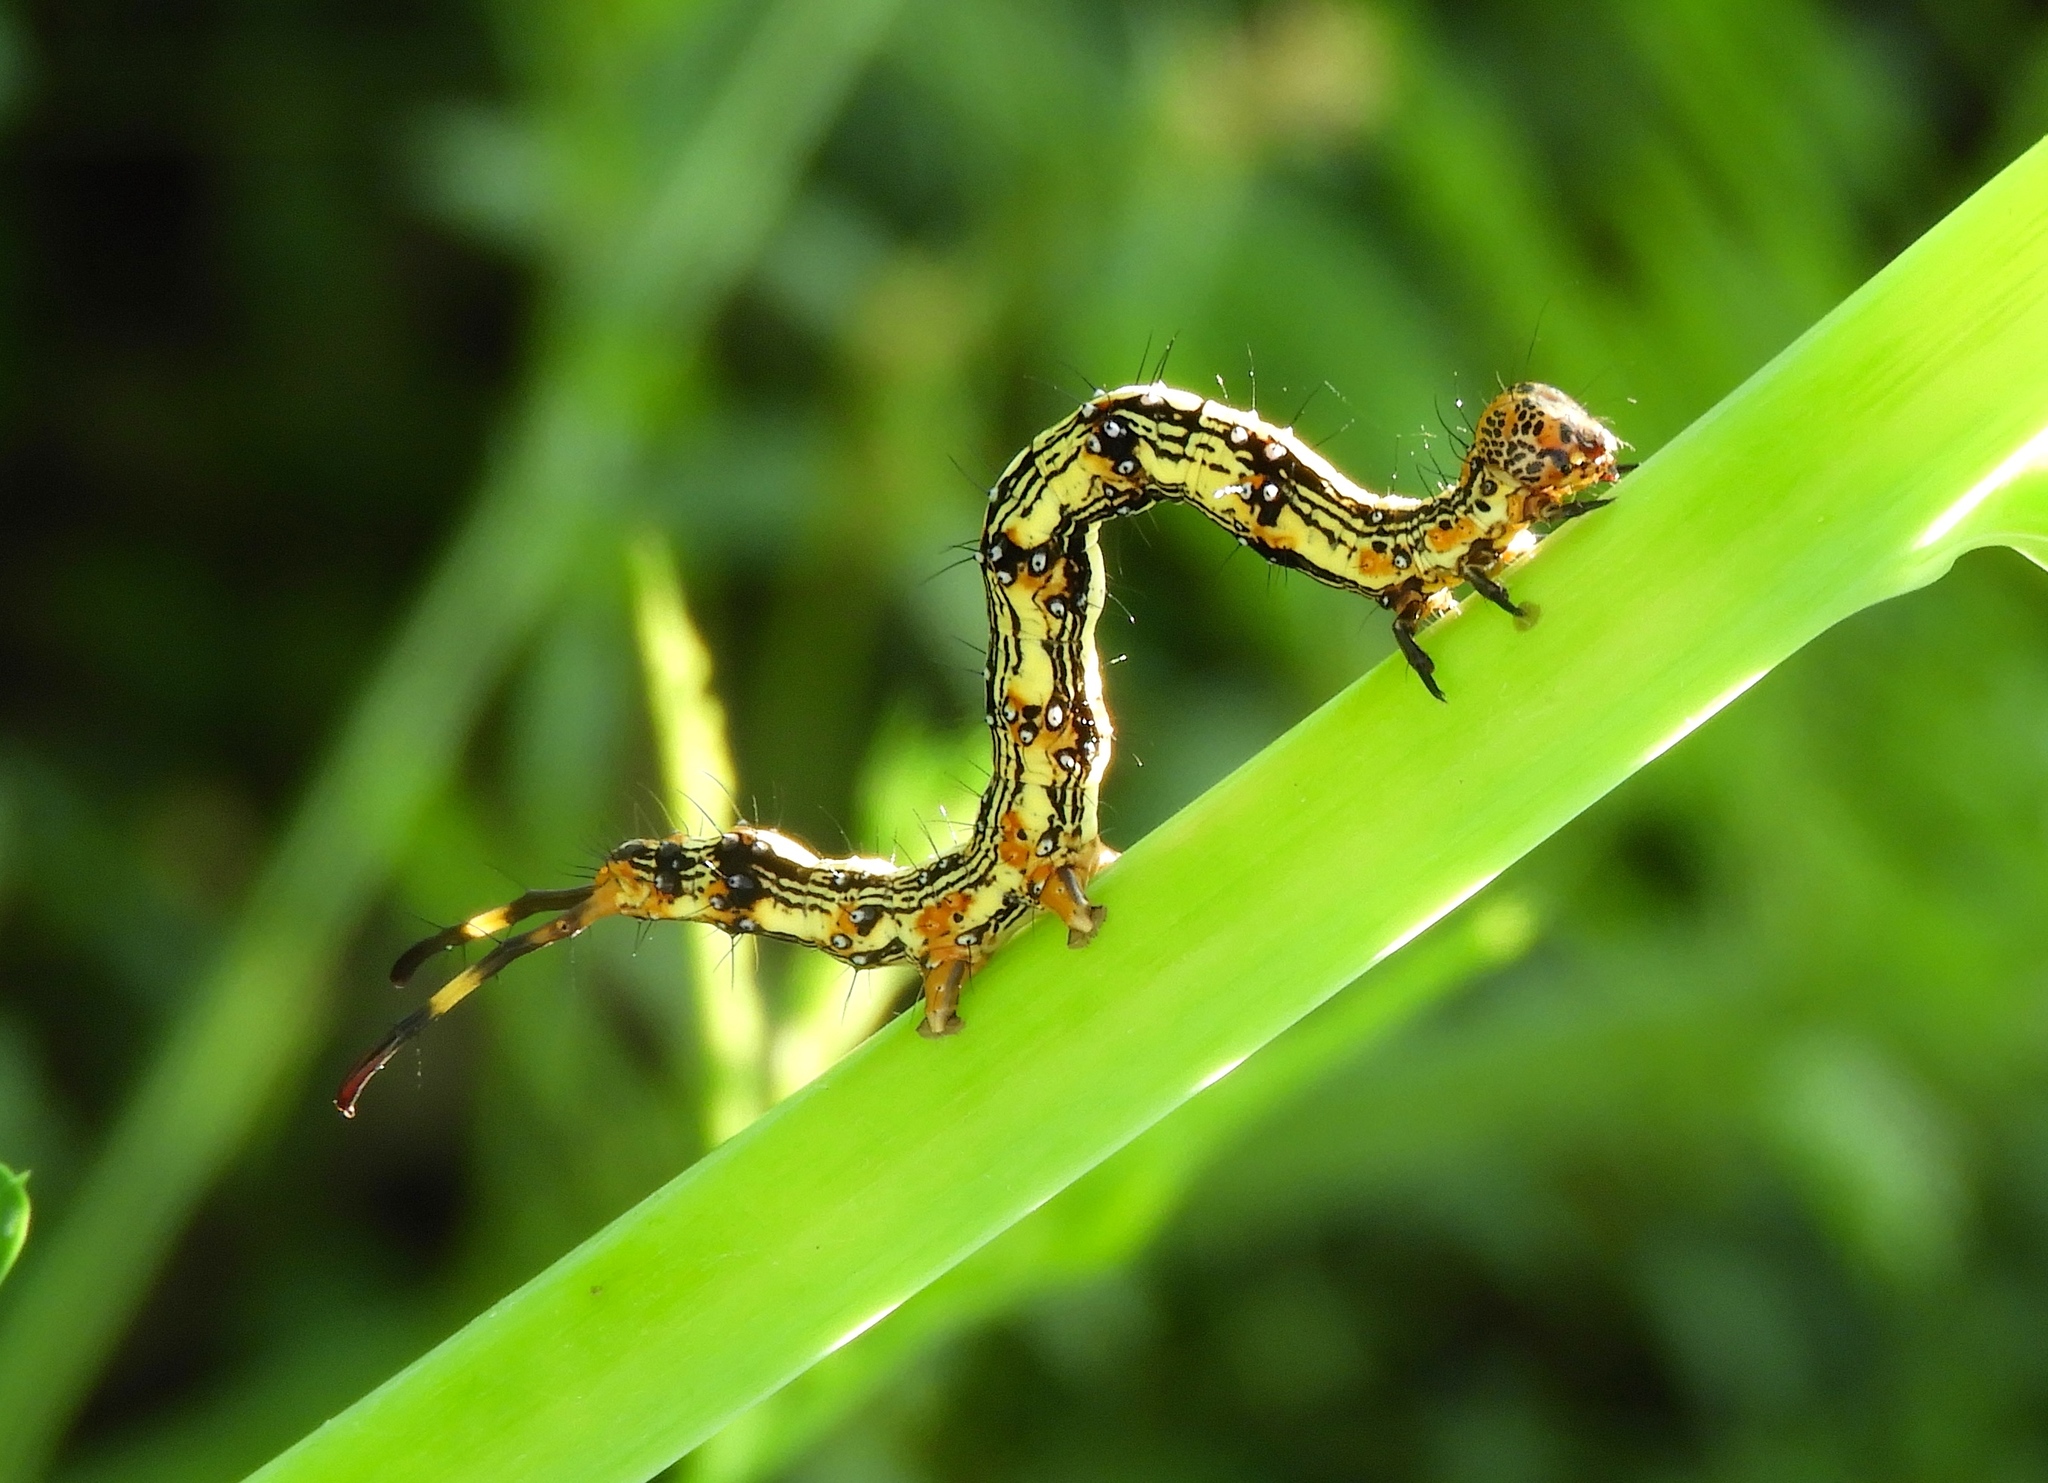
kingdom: Animalia
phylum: Arthropoda
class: Insecta
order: Lepidoptera
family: Erebidae
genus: Selenisa
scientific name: Selenisa sueroides
